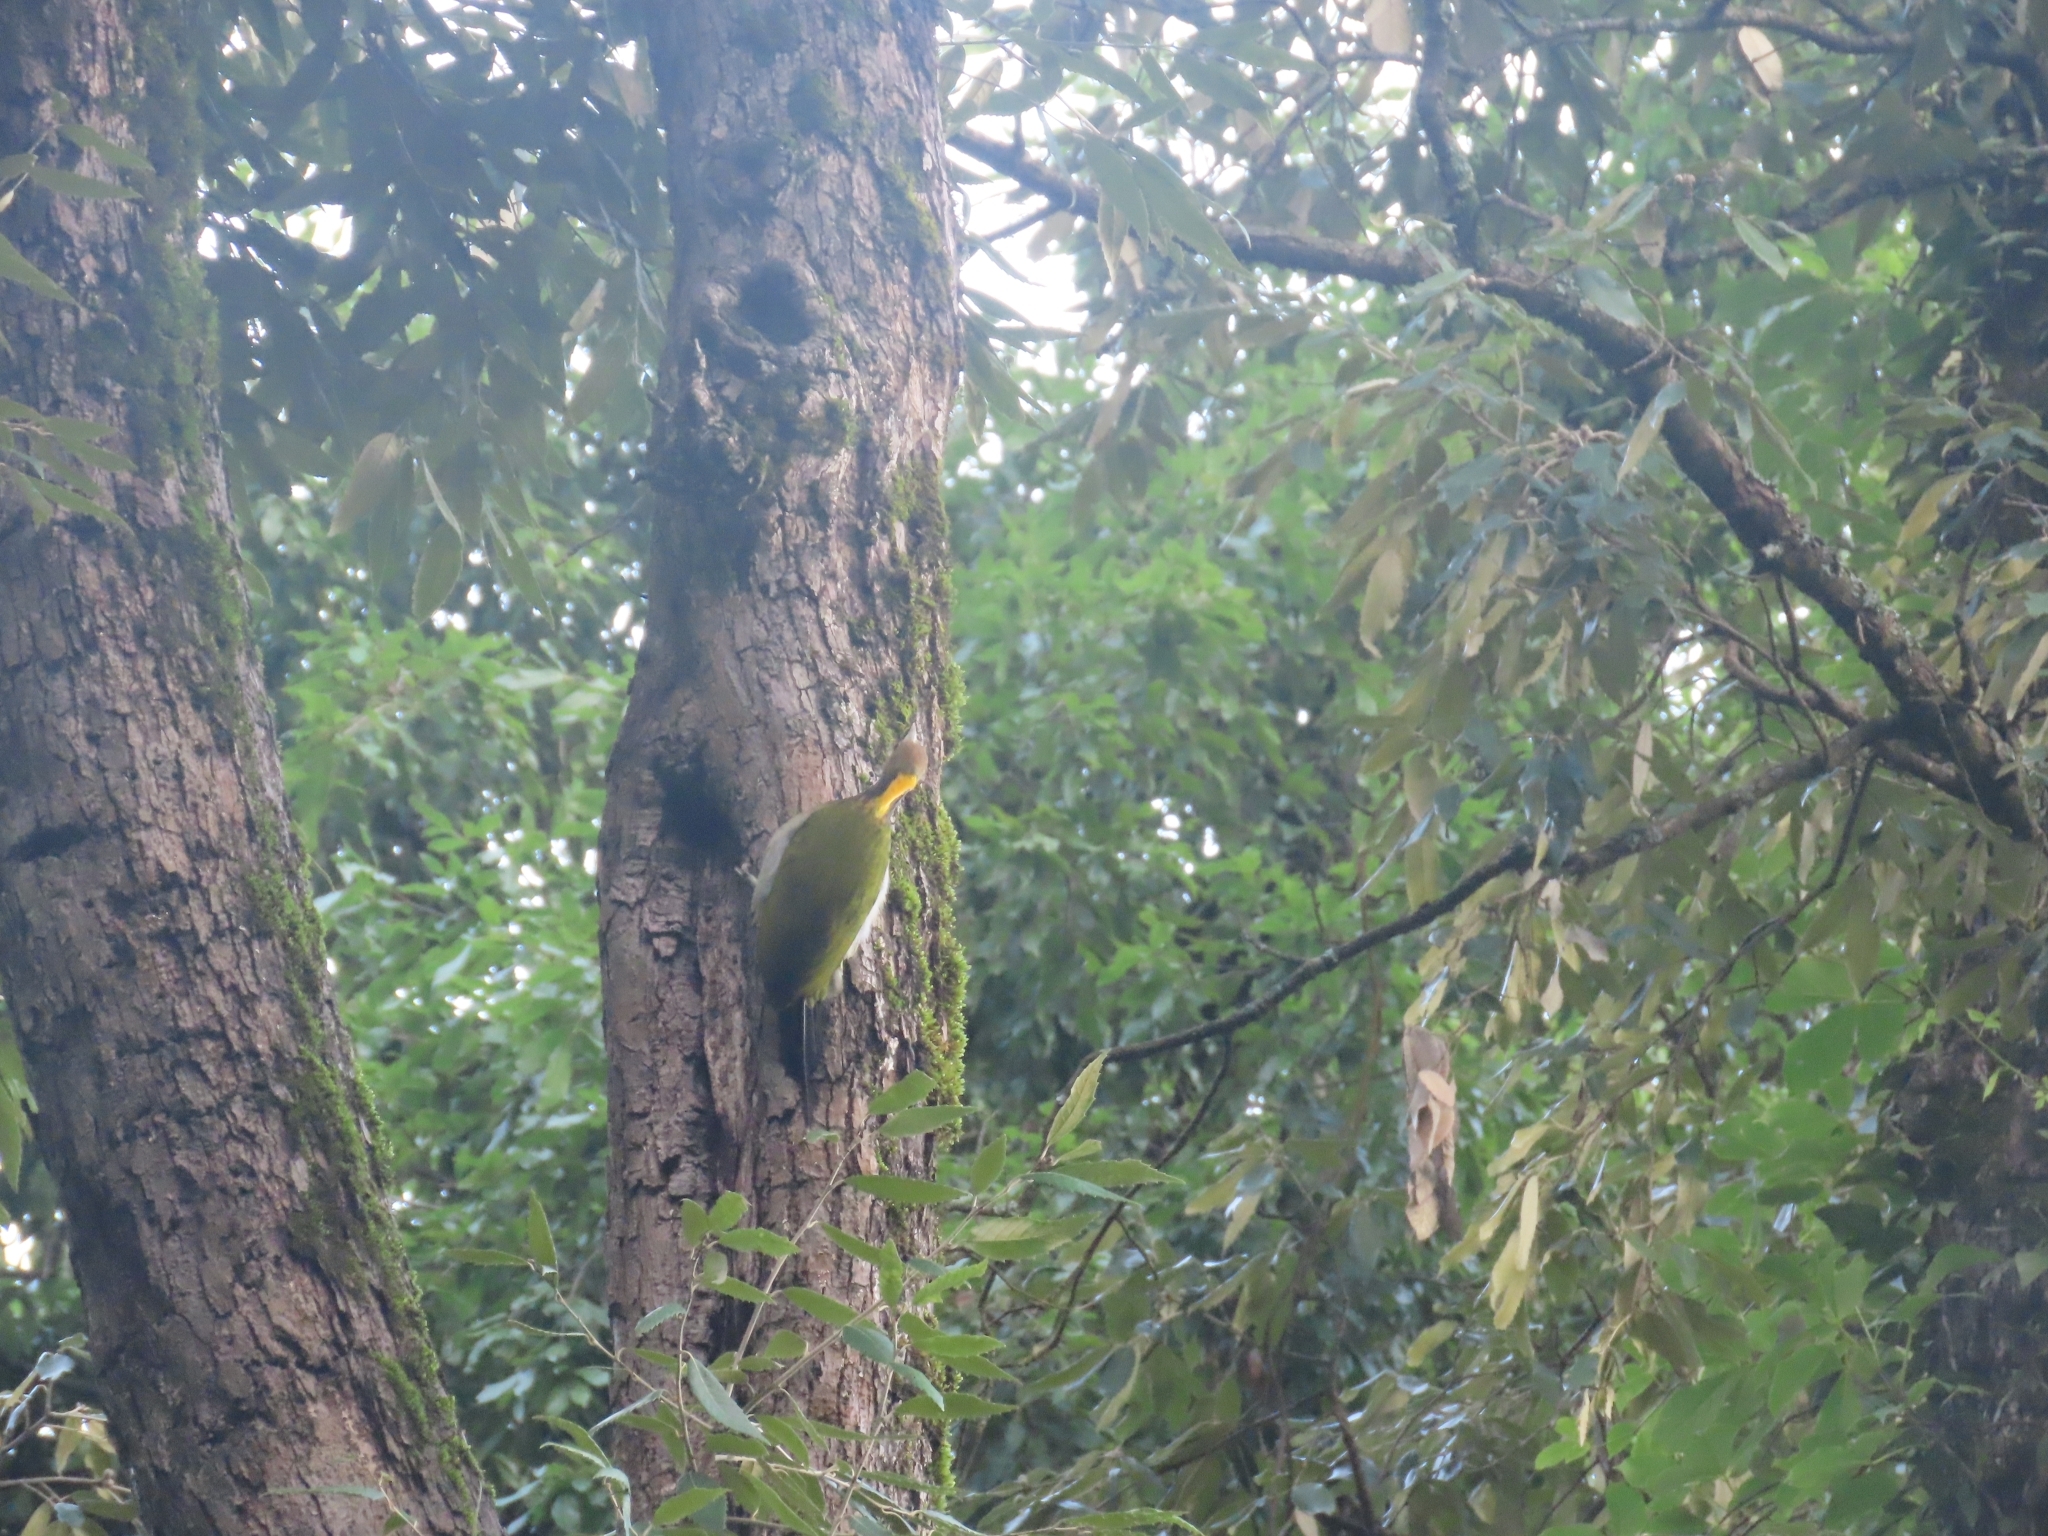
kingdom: Animalia
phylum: Chordata
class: Aves
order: Piciformes
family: Picidae
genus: Chrysophlegma
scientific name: Chrysophlegma flavinucha
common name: Greater yellownape
